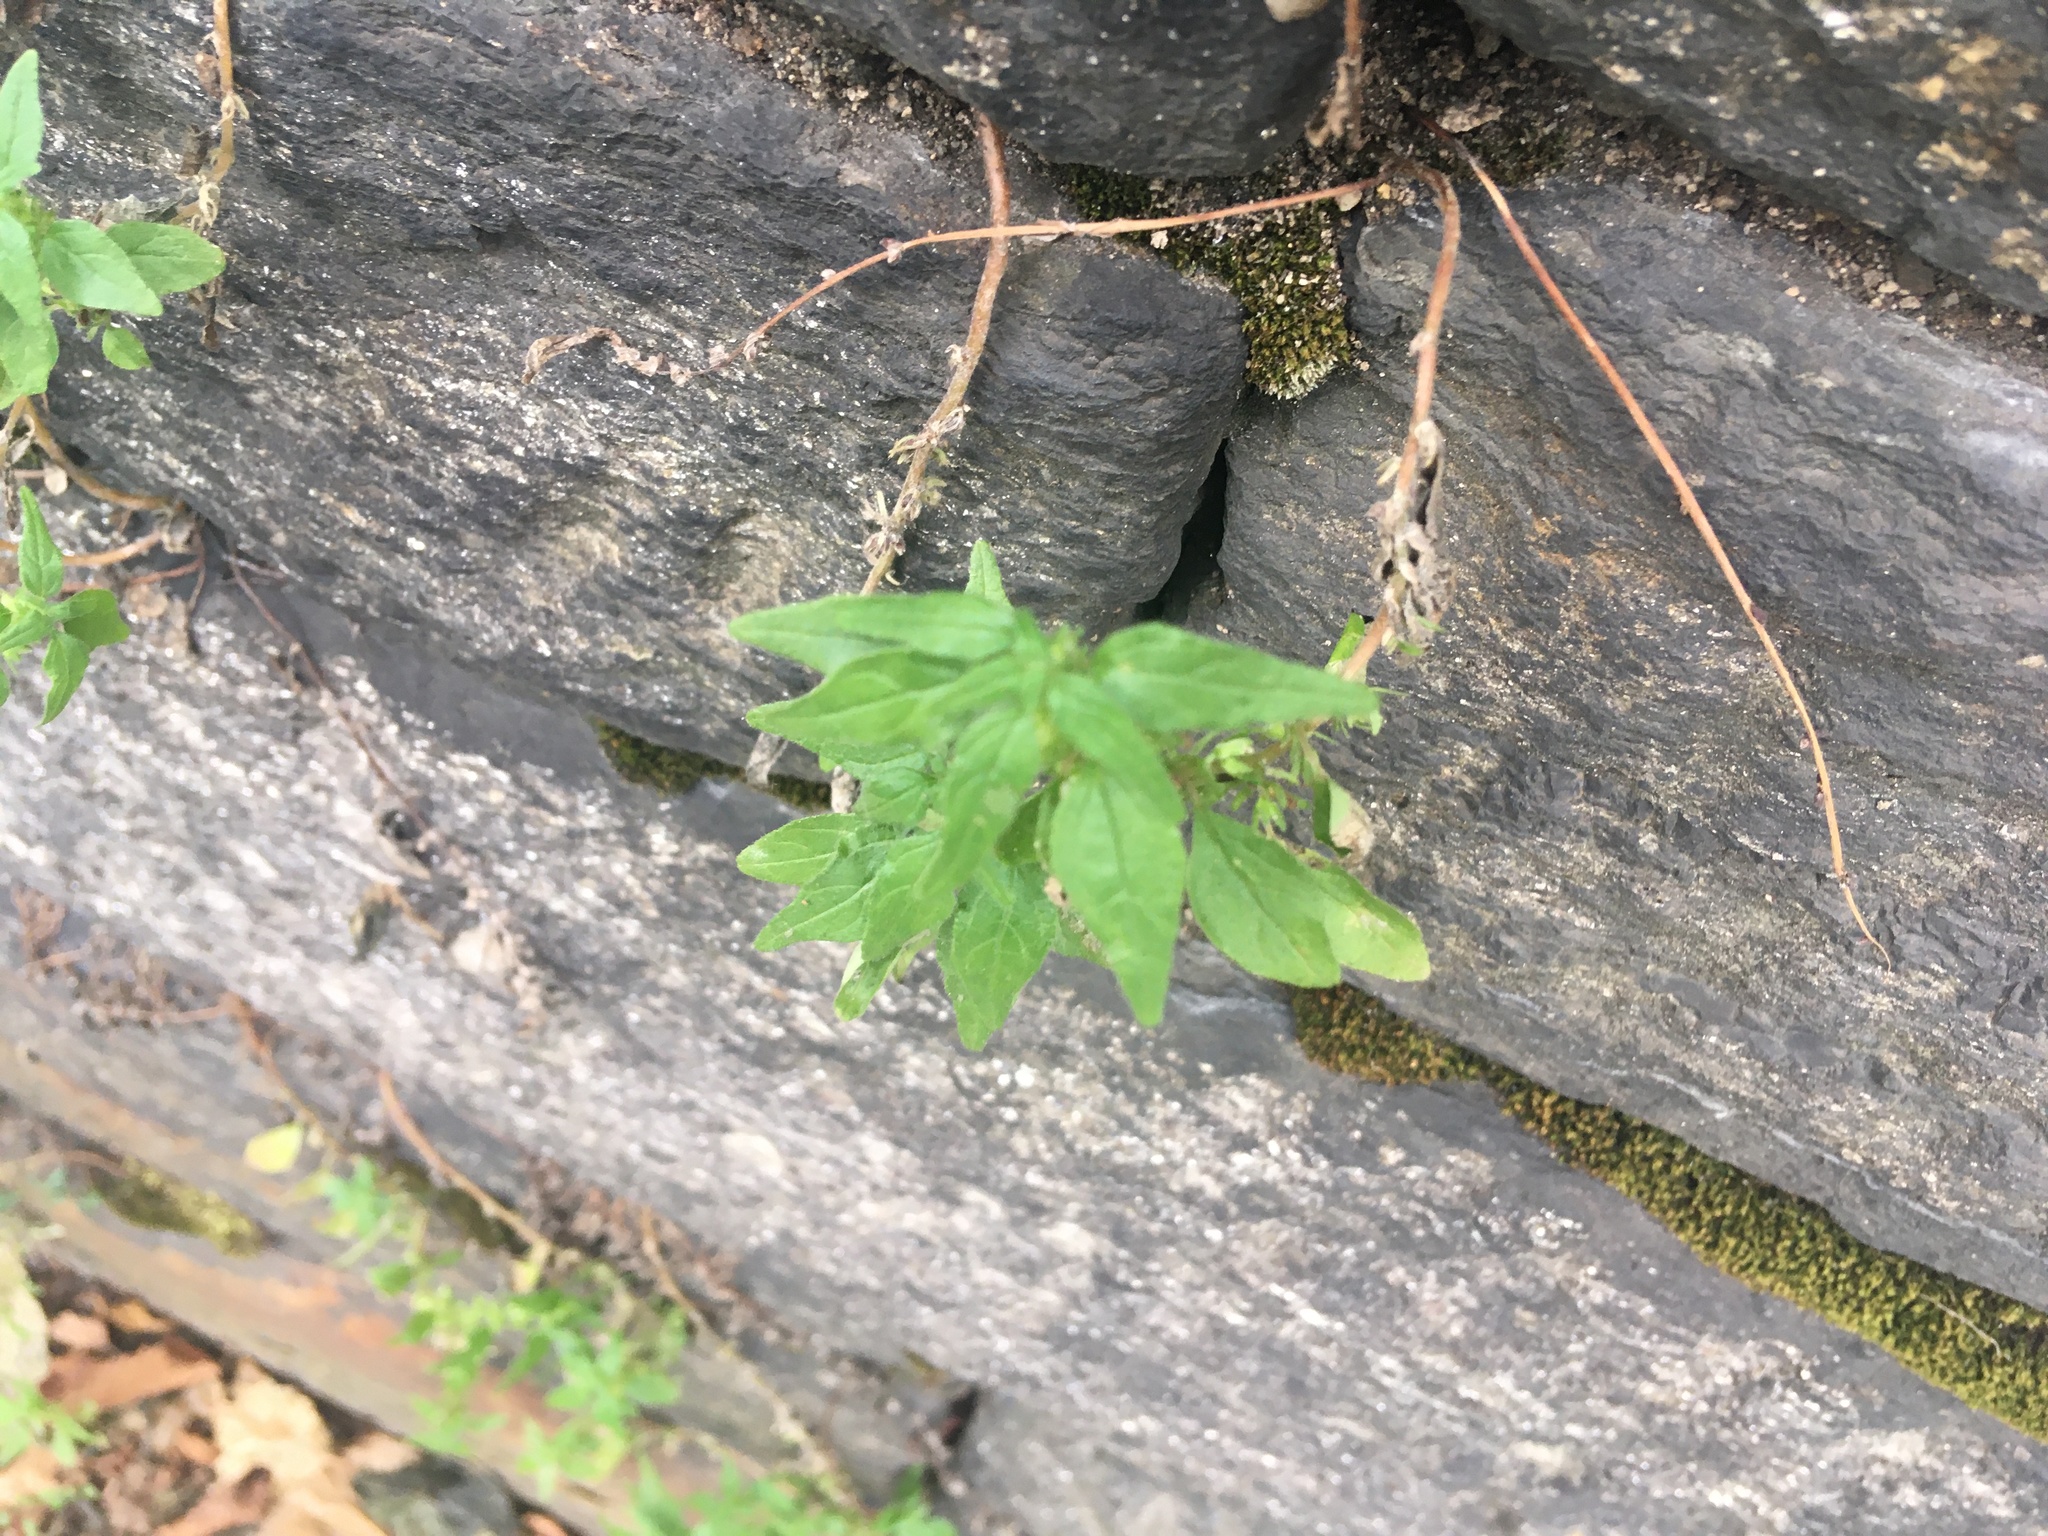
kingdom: Plantae
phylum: Tracheophyta
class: Magnoliopsida
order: Rosales
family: Urticaceae
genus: Parietaria
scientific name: Parietaria pensylvanica
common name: Pennsylvania pellitory
